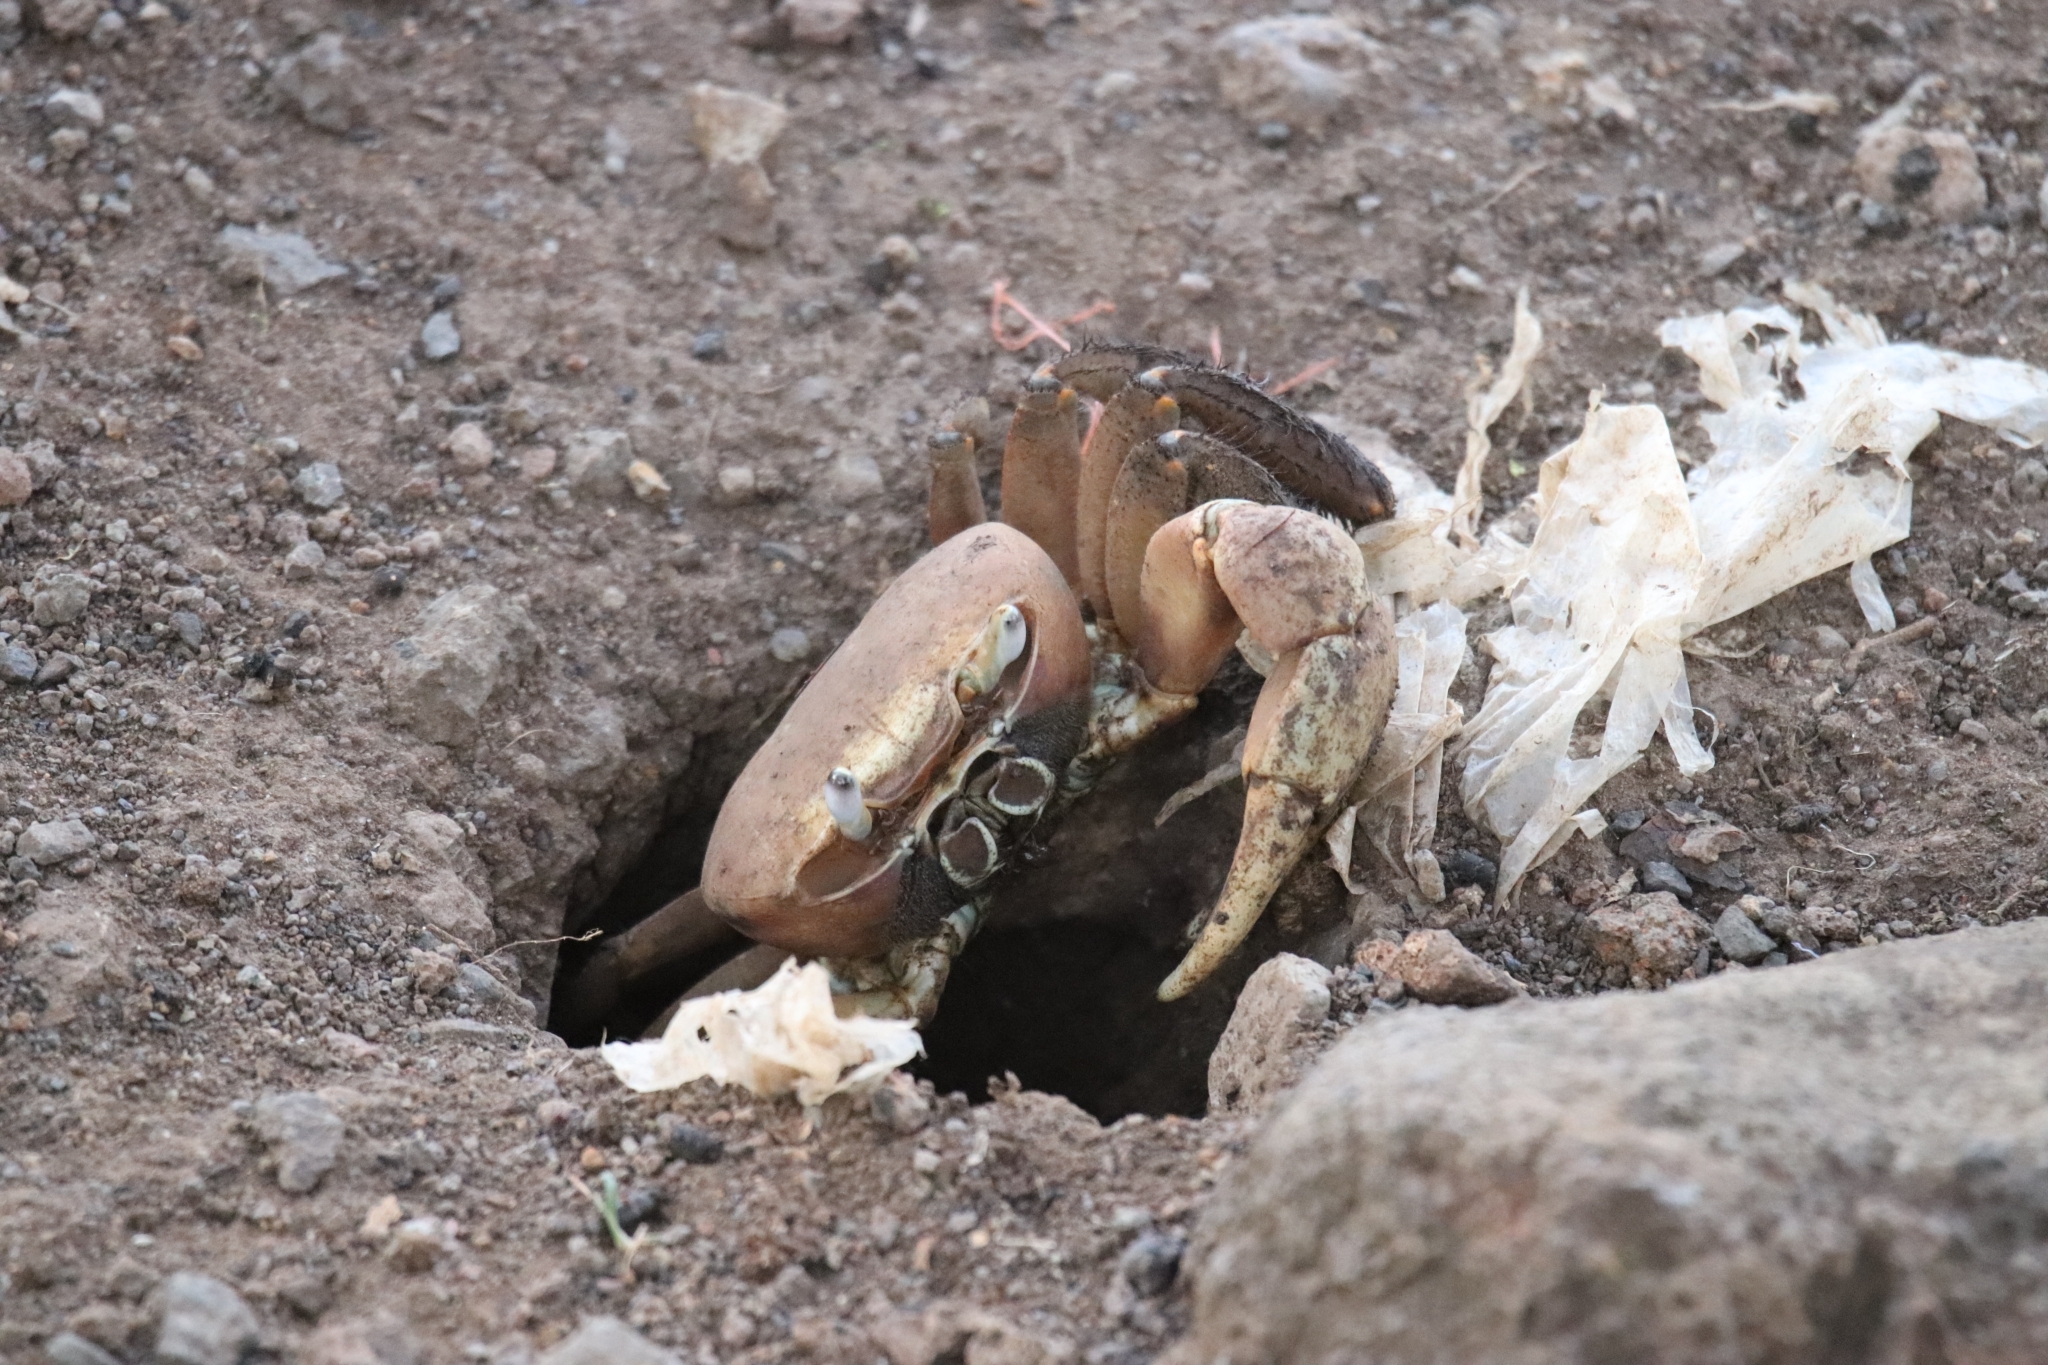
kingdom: Animalia
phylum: Arthropoda
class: Malacostraca
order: Decapoda
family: Gecarcinidae
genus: Cardisoma
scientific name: Cardisoma carnifex
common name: Brown land crab
